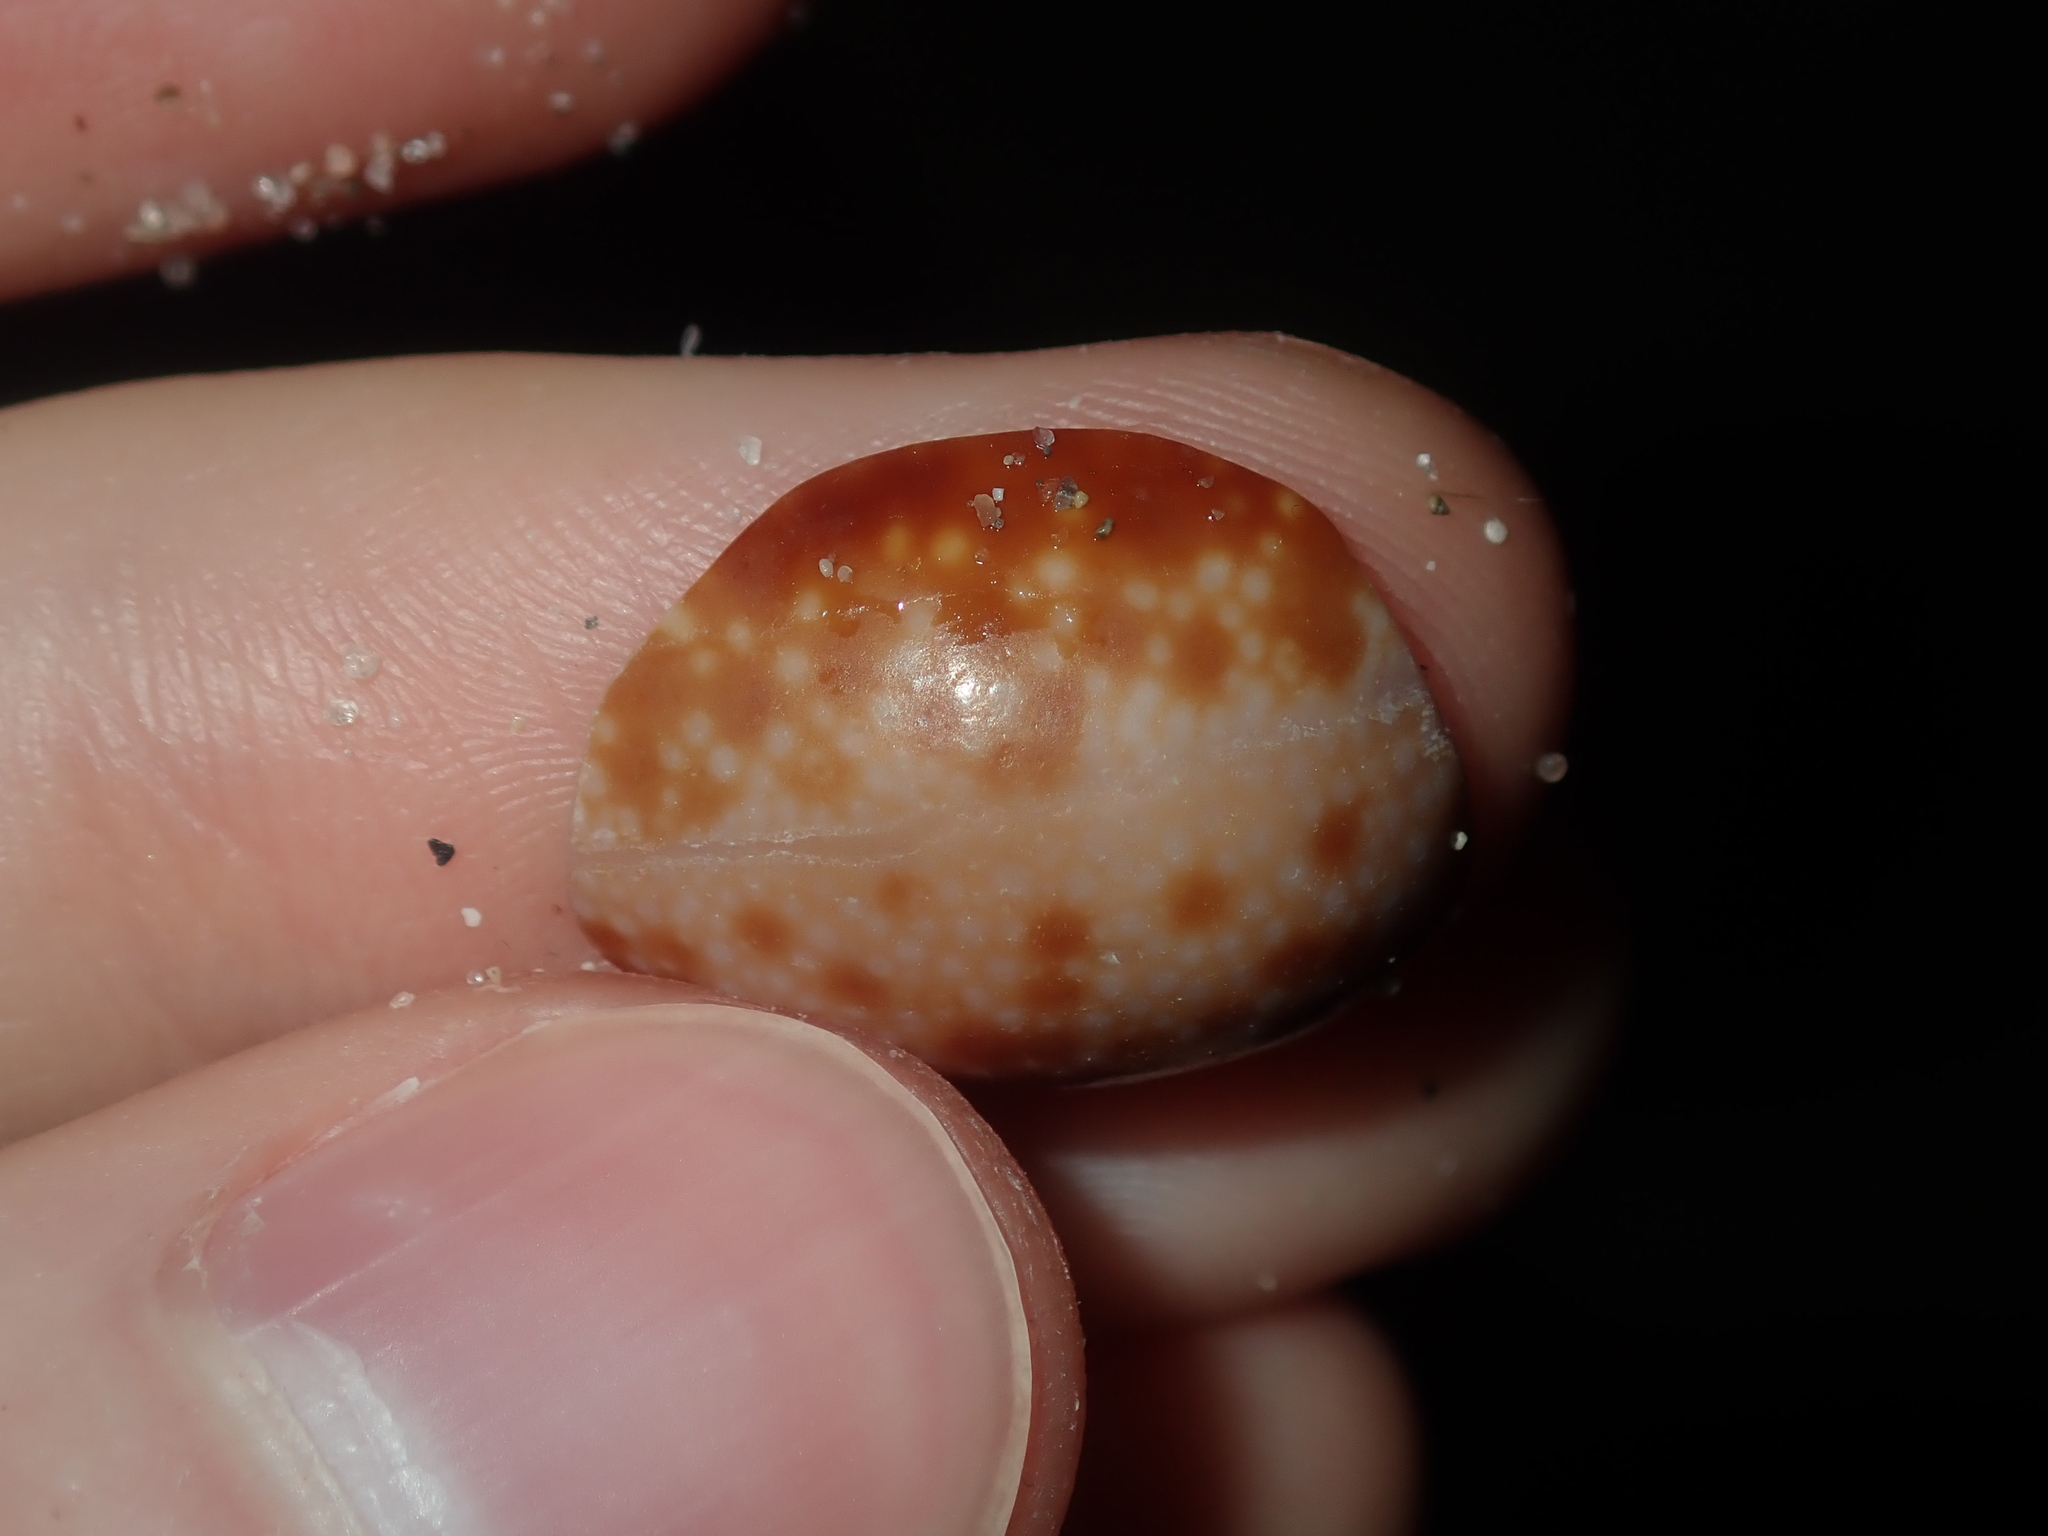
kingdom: Animalia
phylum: Mollusca
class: Gastropoda
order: Littorinimorpha
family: Cypraeidae
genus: Naria
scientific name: Naria helvola
